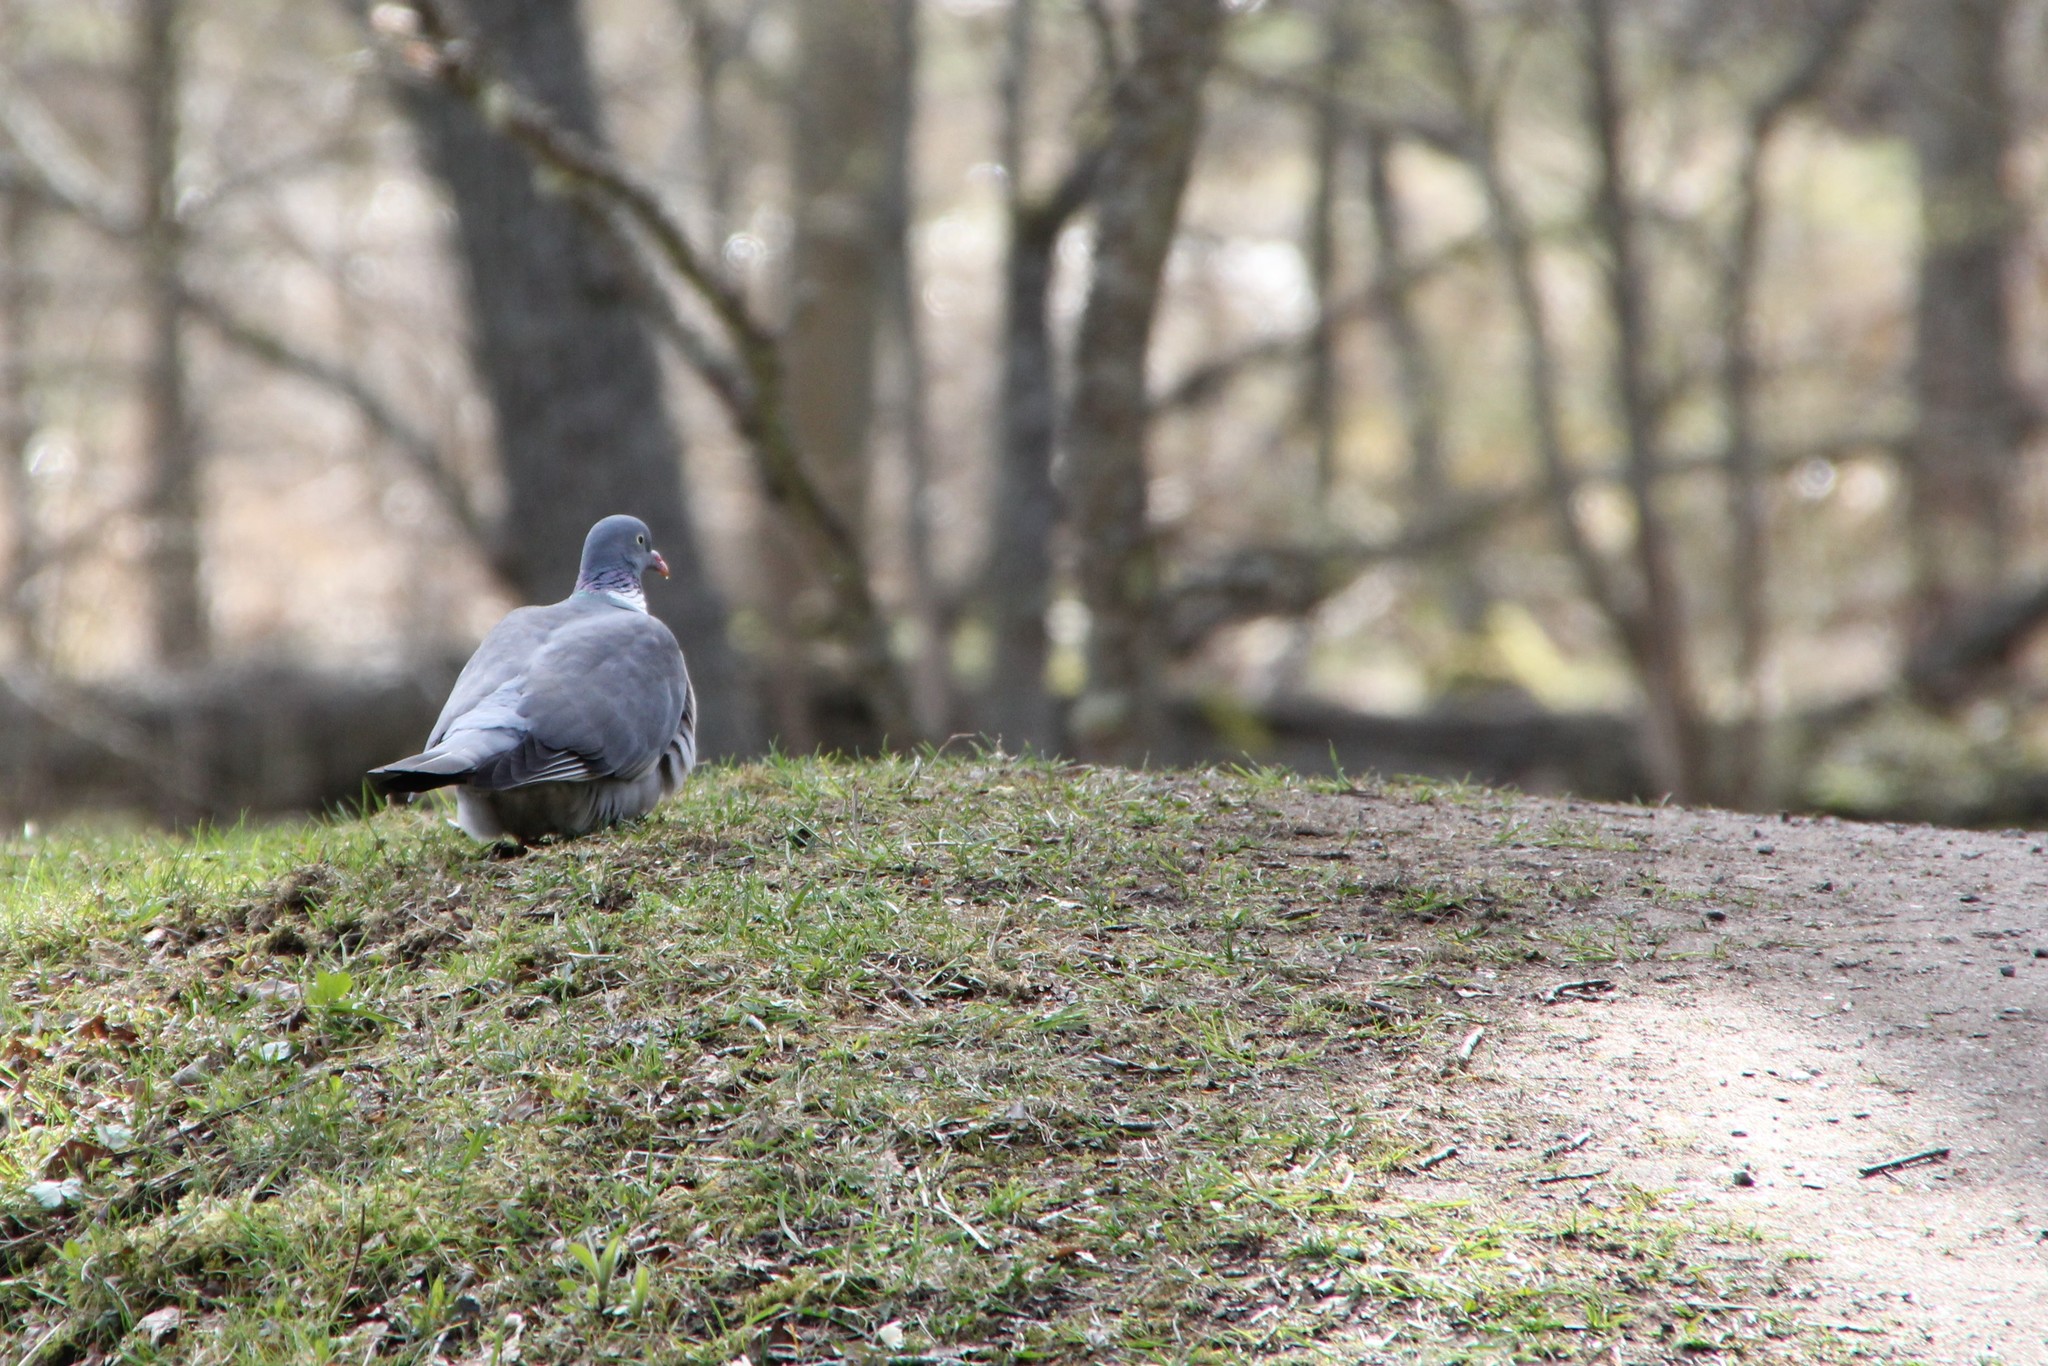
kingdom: Animalia
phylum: Chordata
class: Aves
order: Columbiformes
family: Columbidae
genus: Columba
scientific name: Columba palumbus
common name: Common wood pigeon
